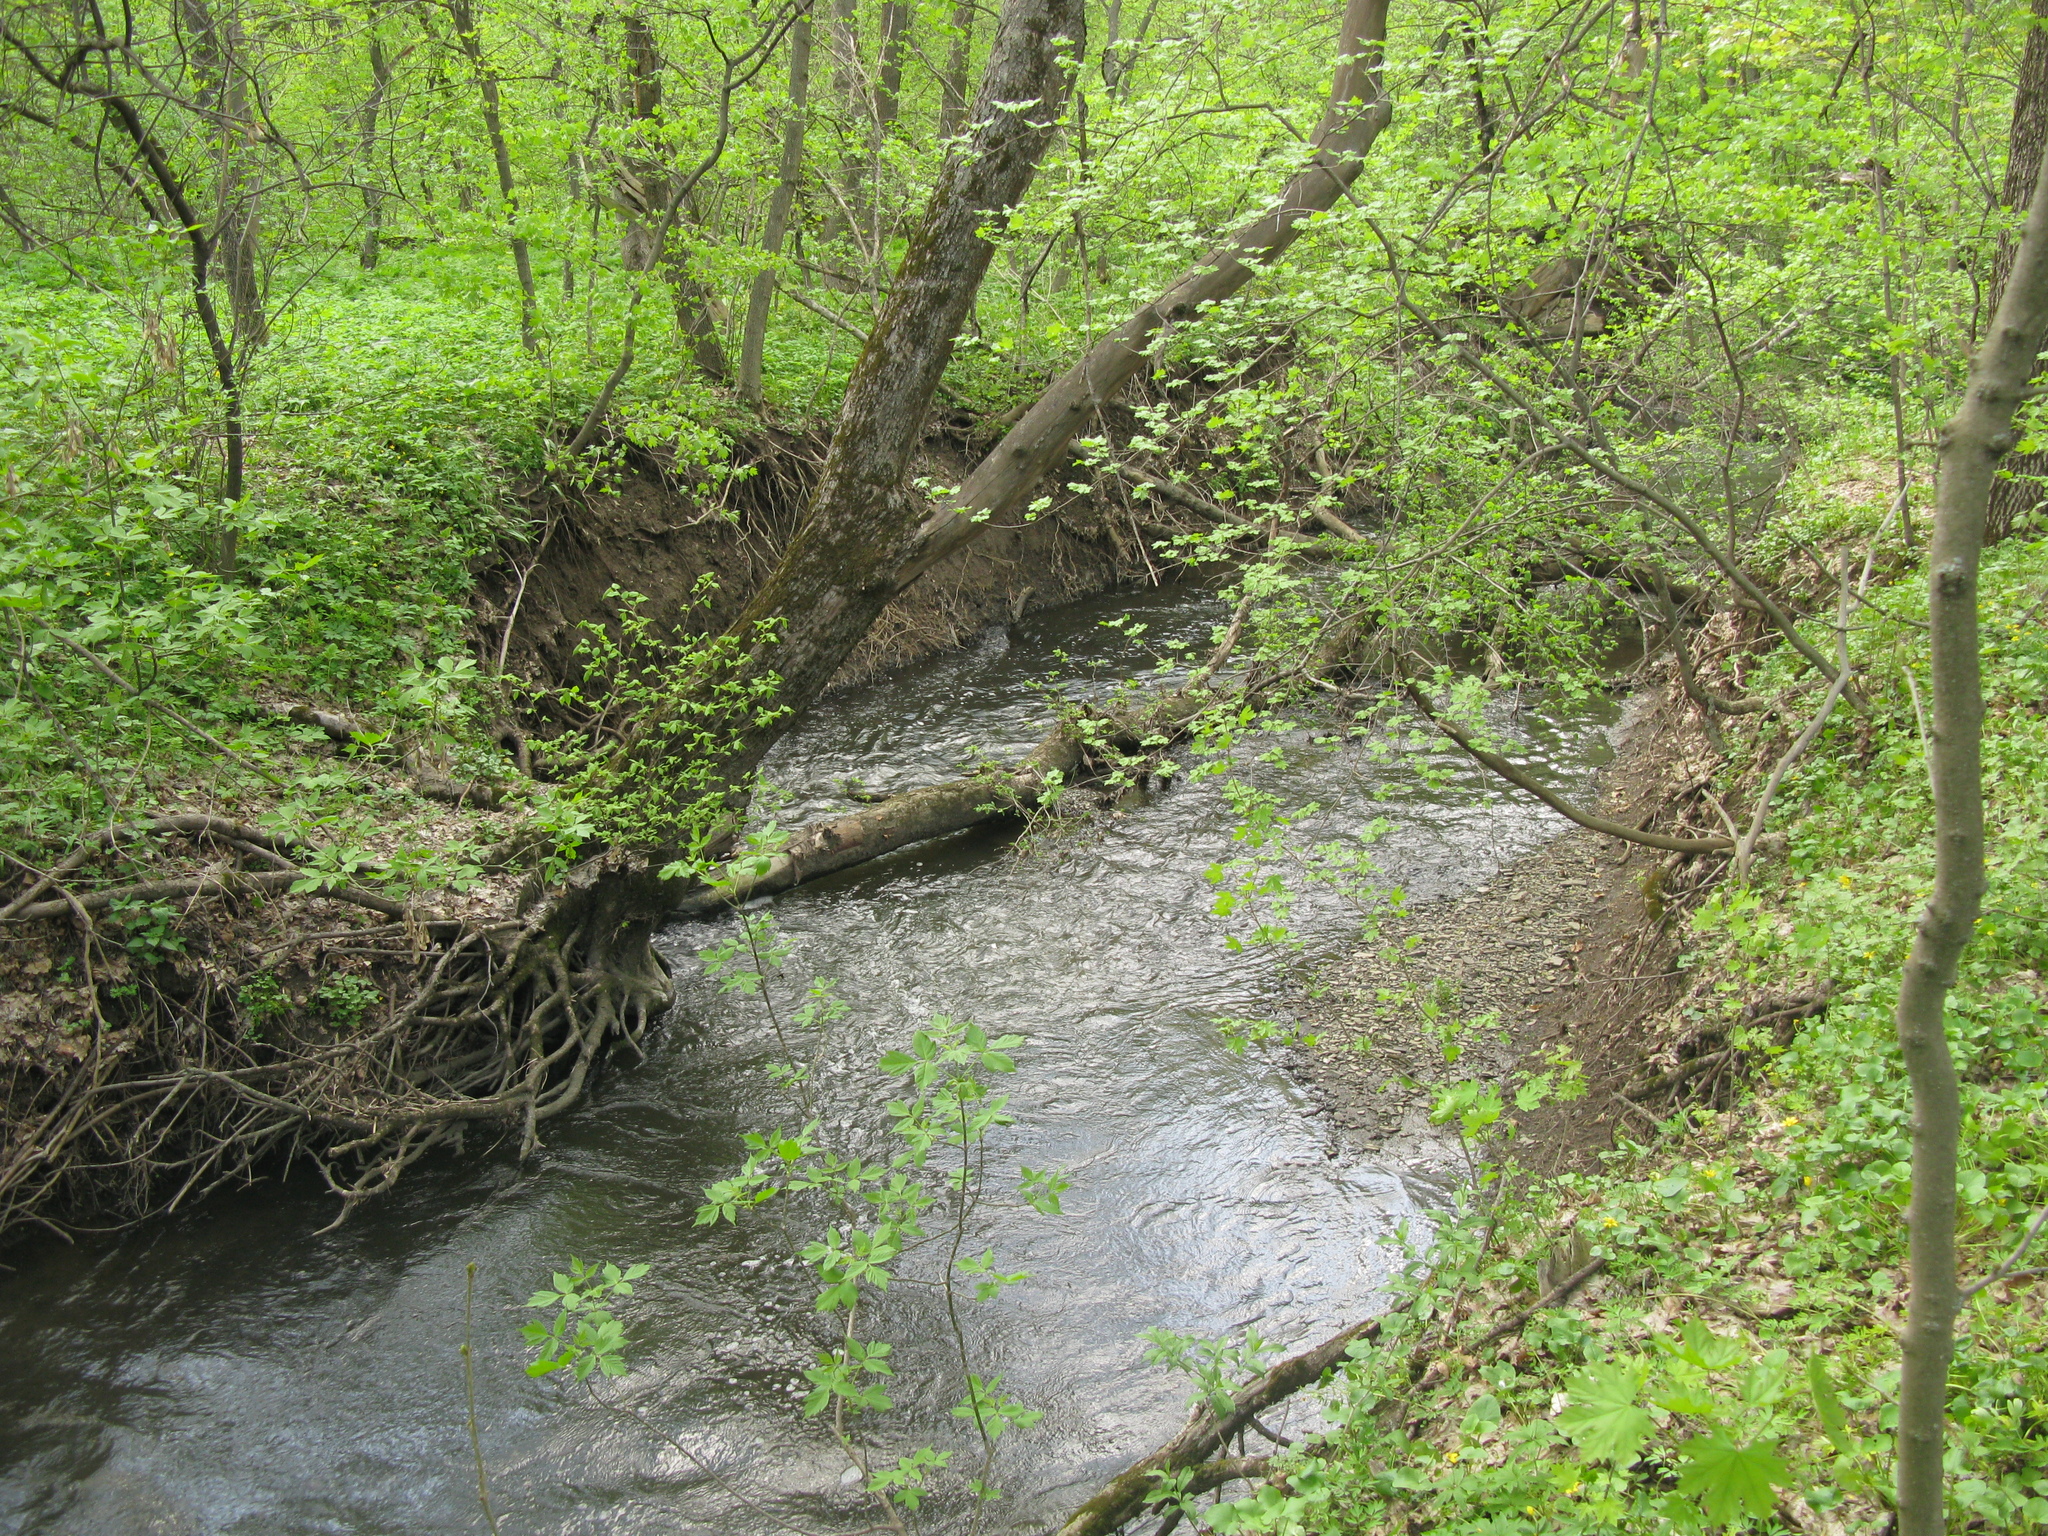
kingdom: Plantae
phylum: Tracheophyta
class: Magnoliopsida
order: Sapindales
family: Sapindaceae
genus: Acer
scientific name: Acer negundo
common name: Ashleaf maple
